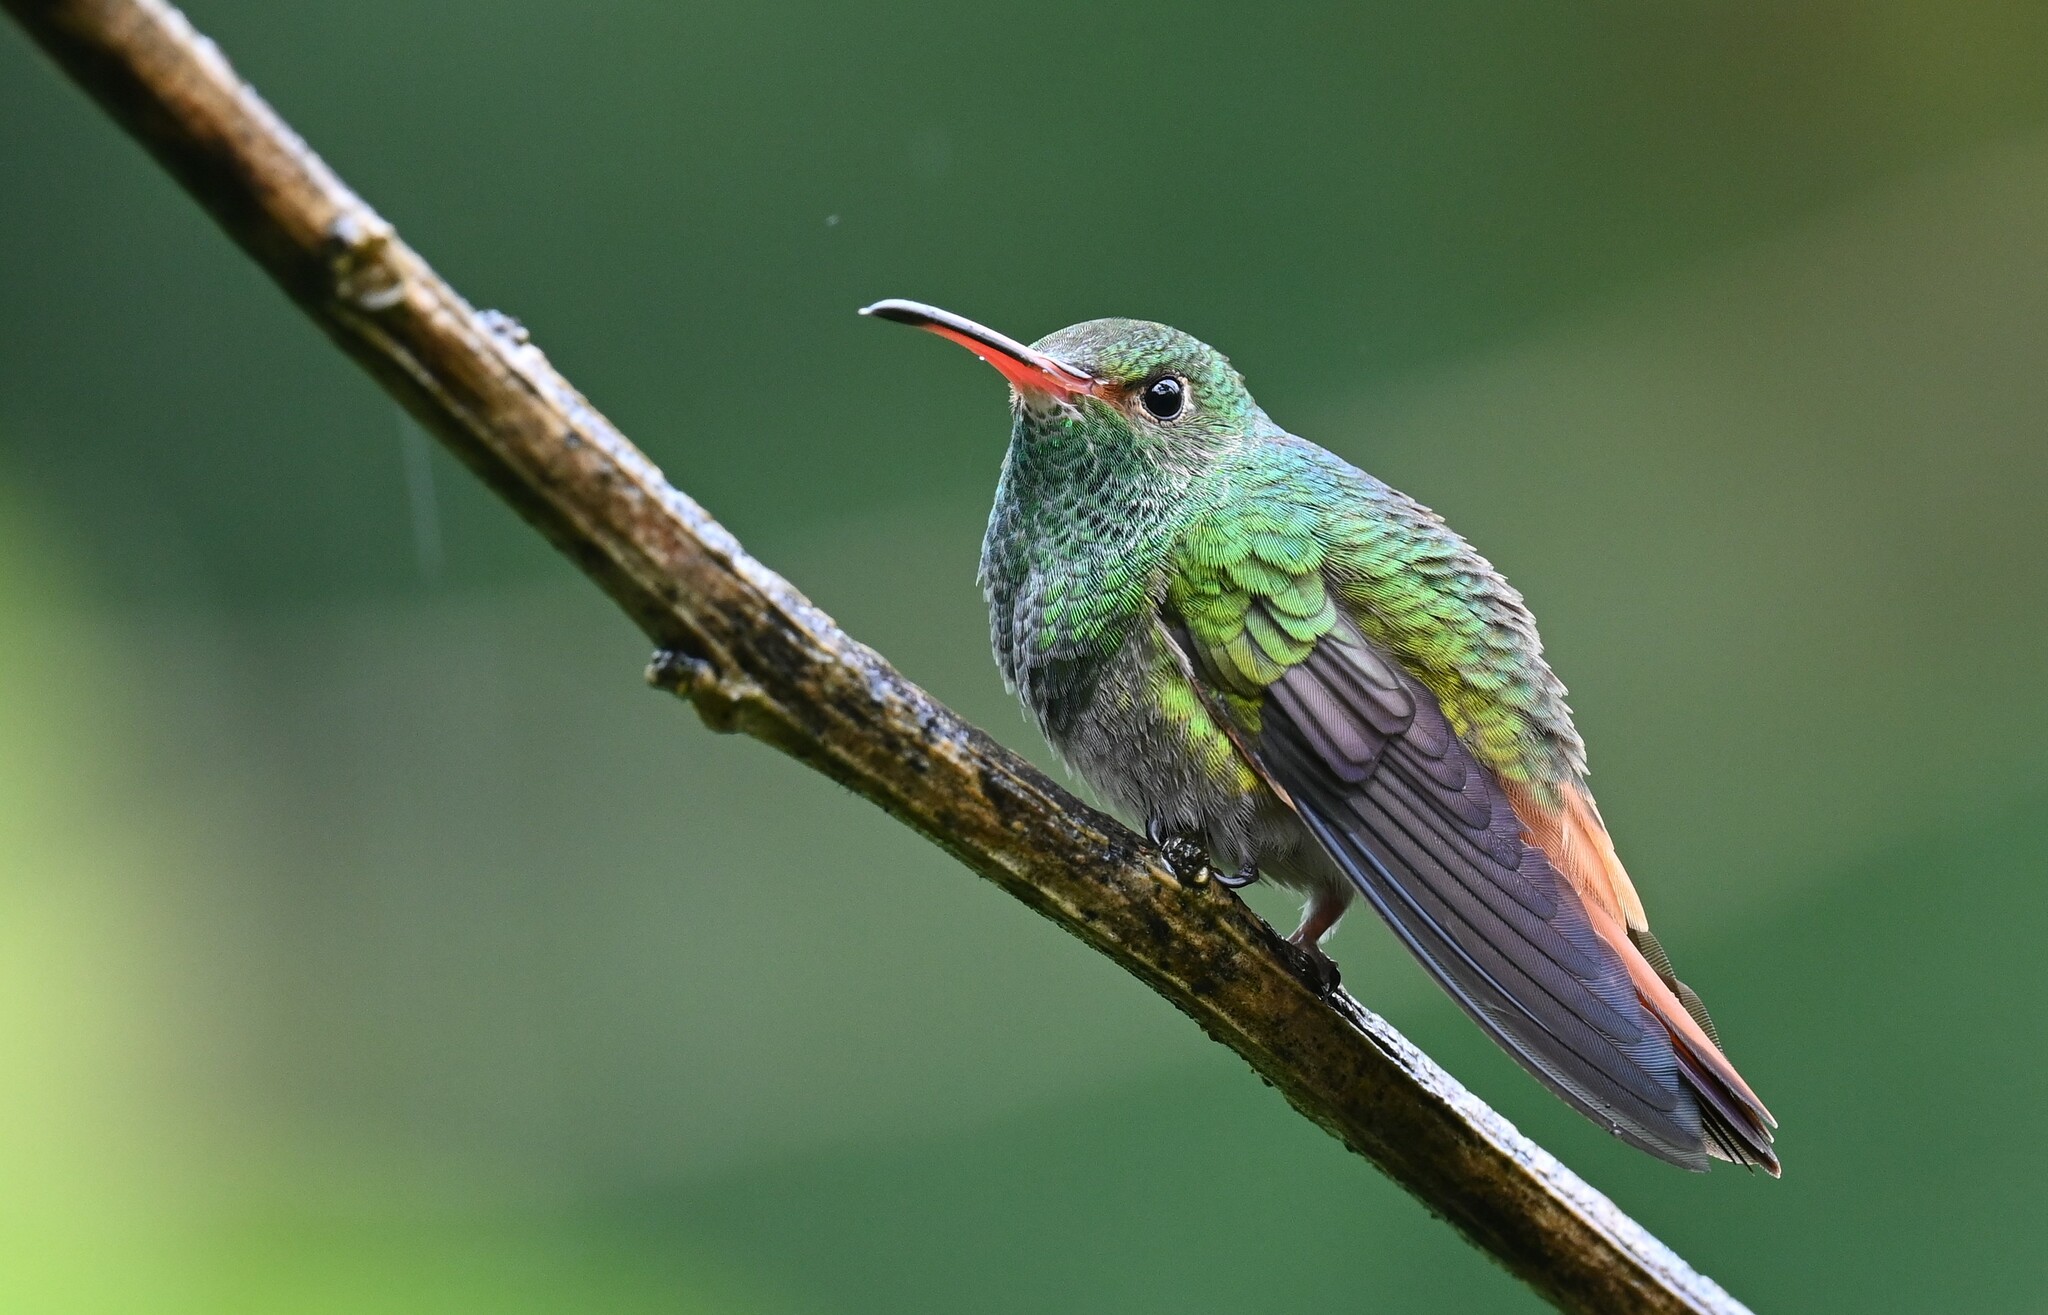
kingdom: Animalia
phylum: Chordata
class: Aves
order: Apodiformes
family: Trochilidae
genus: Amazilia
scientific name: Amazilia tzacatl
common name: Rufous-tailed hummingbird
